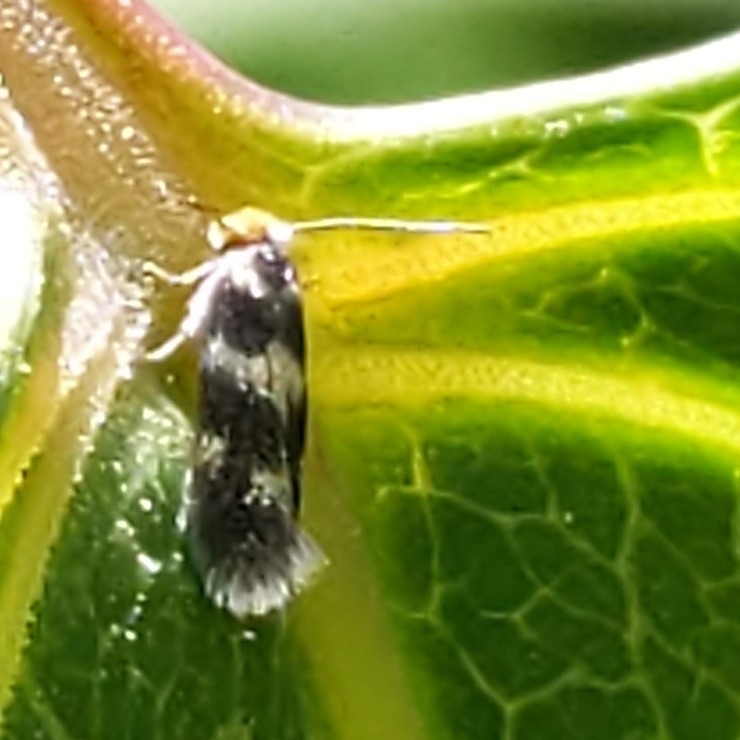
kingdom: Animalia
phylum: Arthropoda
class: Insecta
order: Lepidoptera
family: Nepticulidae
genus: Etainia
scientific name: Etainia sericopeza
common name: Leafminer
